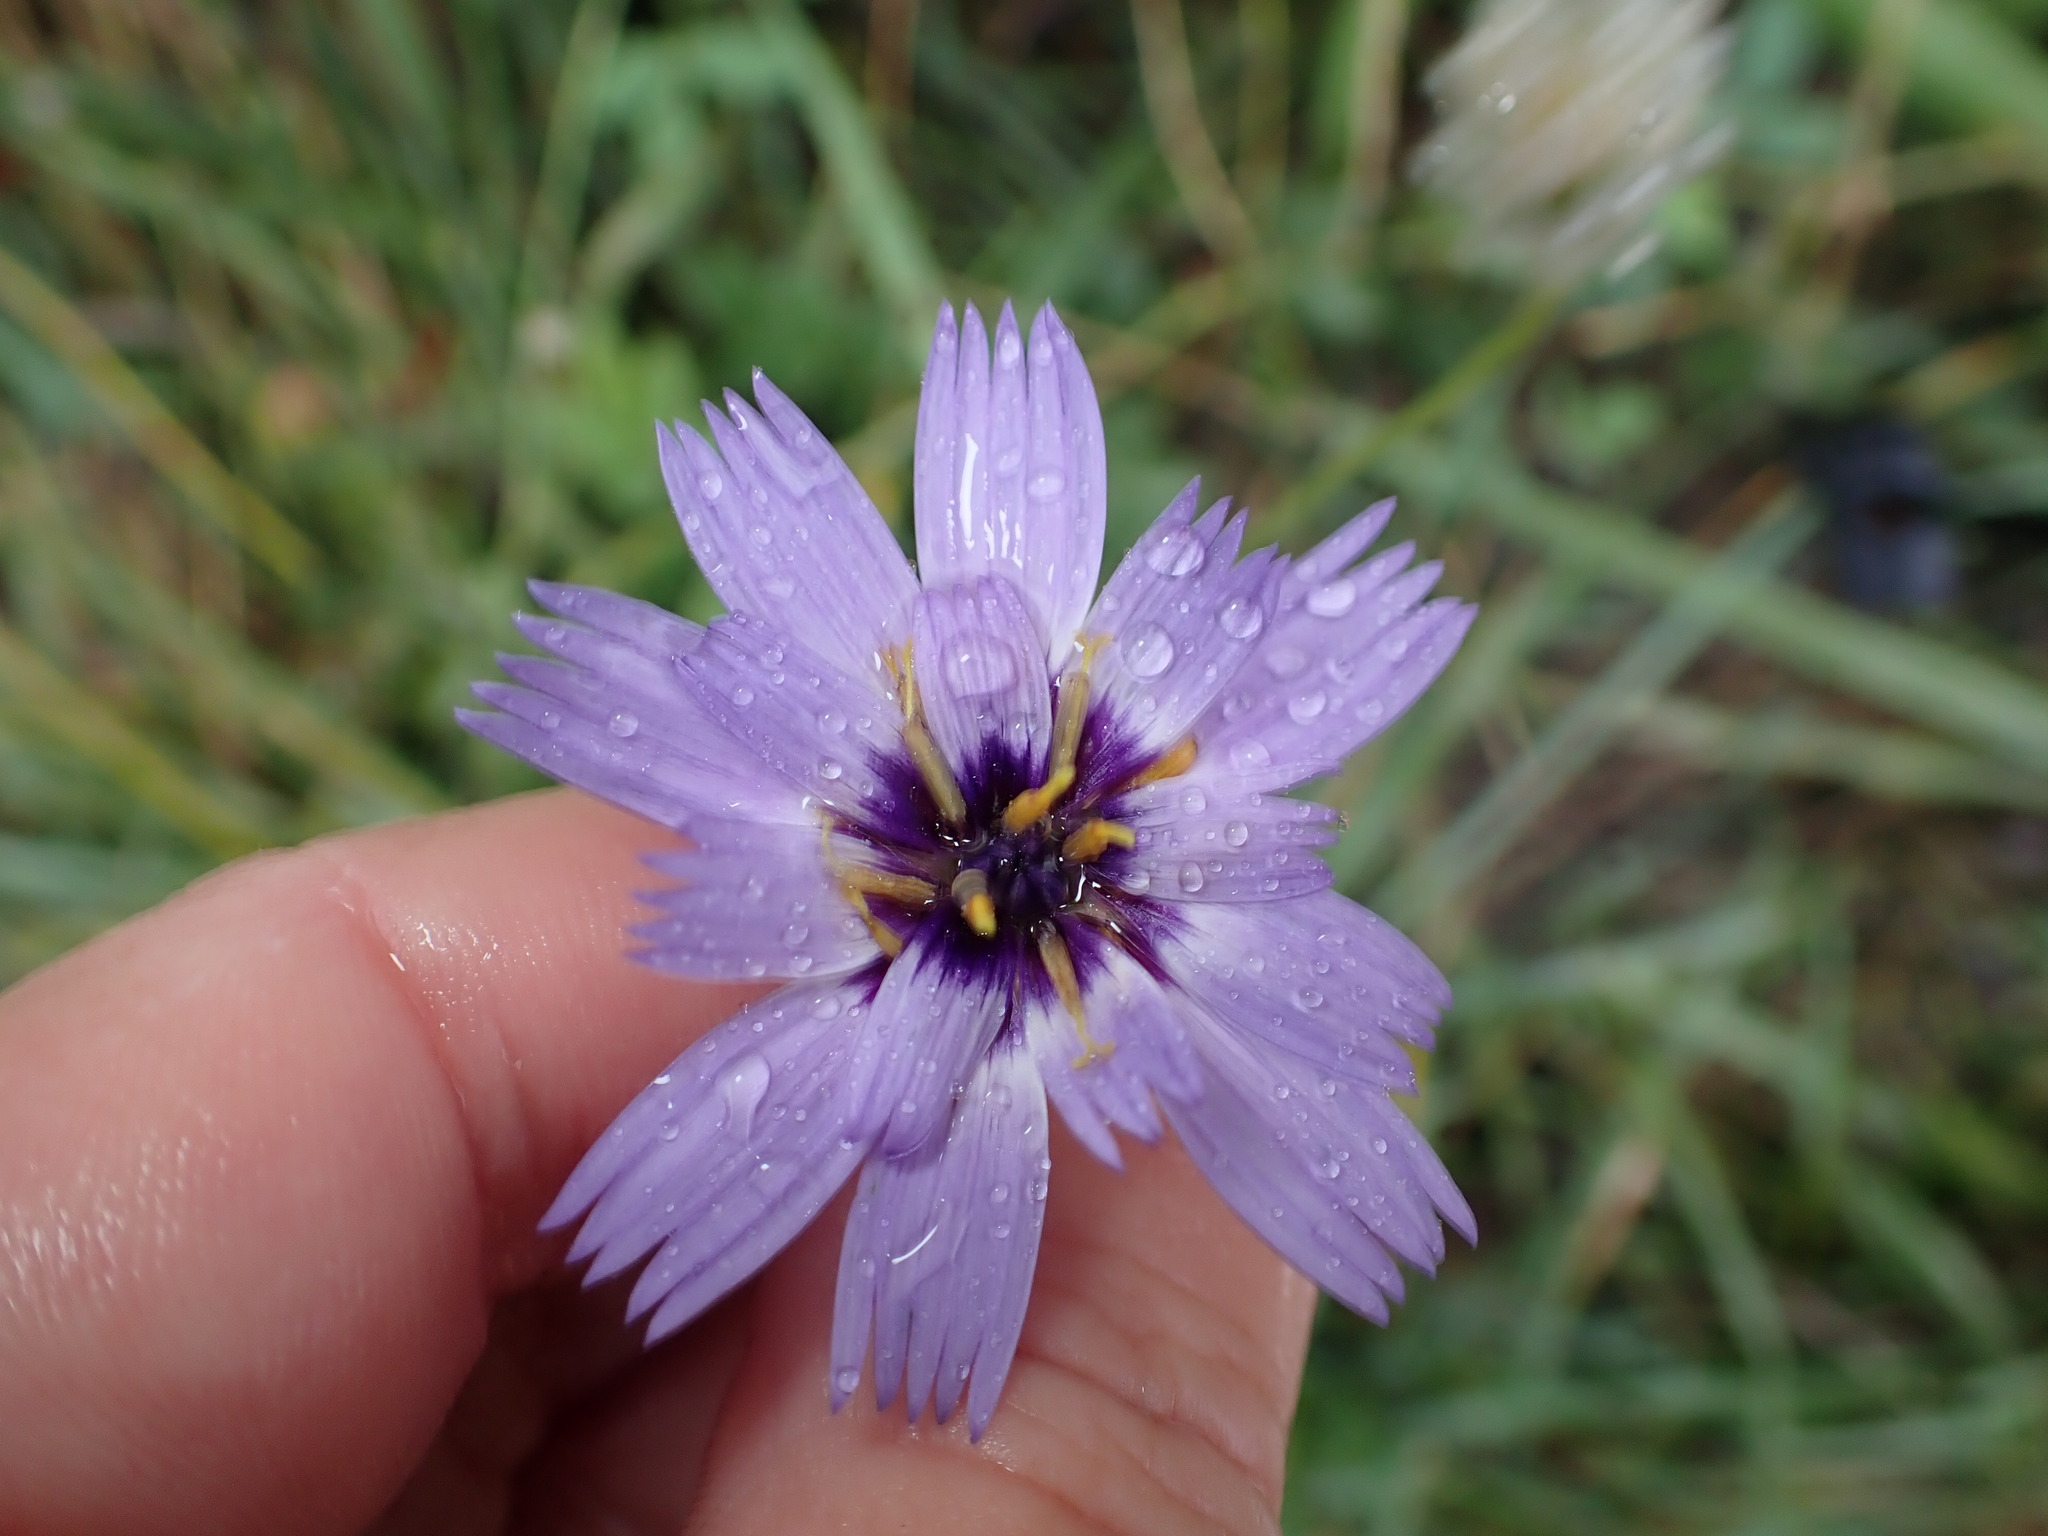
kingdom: Plantae
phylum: Tracheophyta
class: Magnoliopsida
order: Asterales
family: Asteraceae
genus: Catananche
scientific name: Catananche caerulea
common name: Blue cupidone
